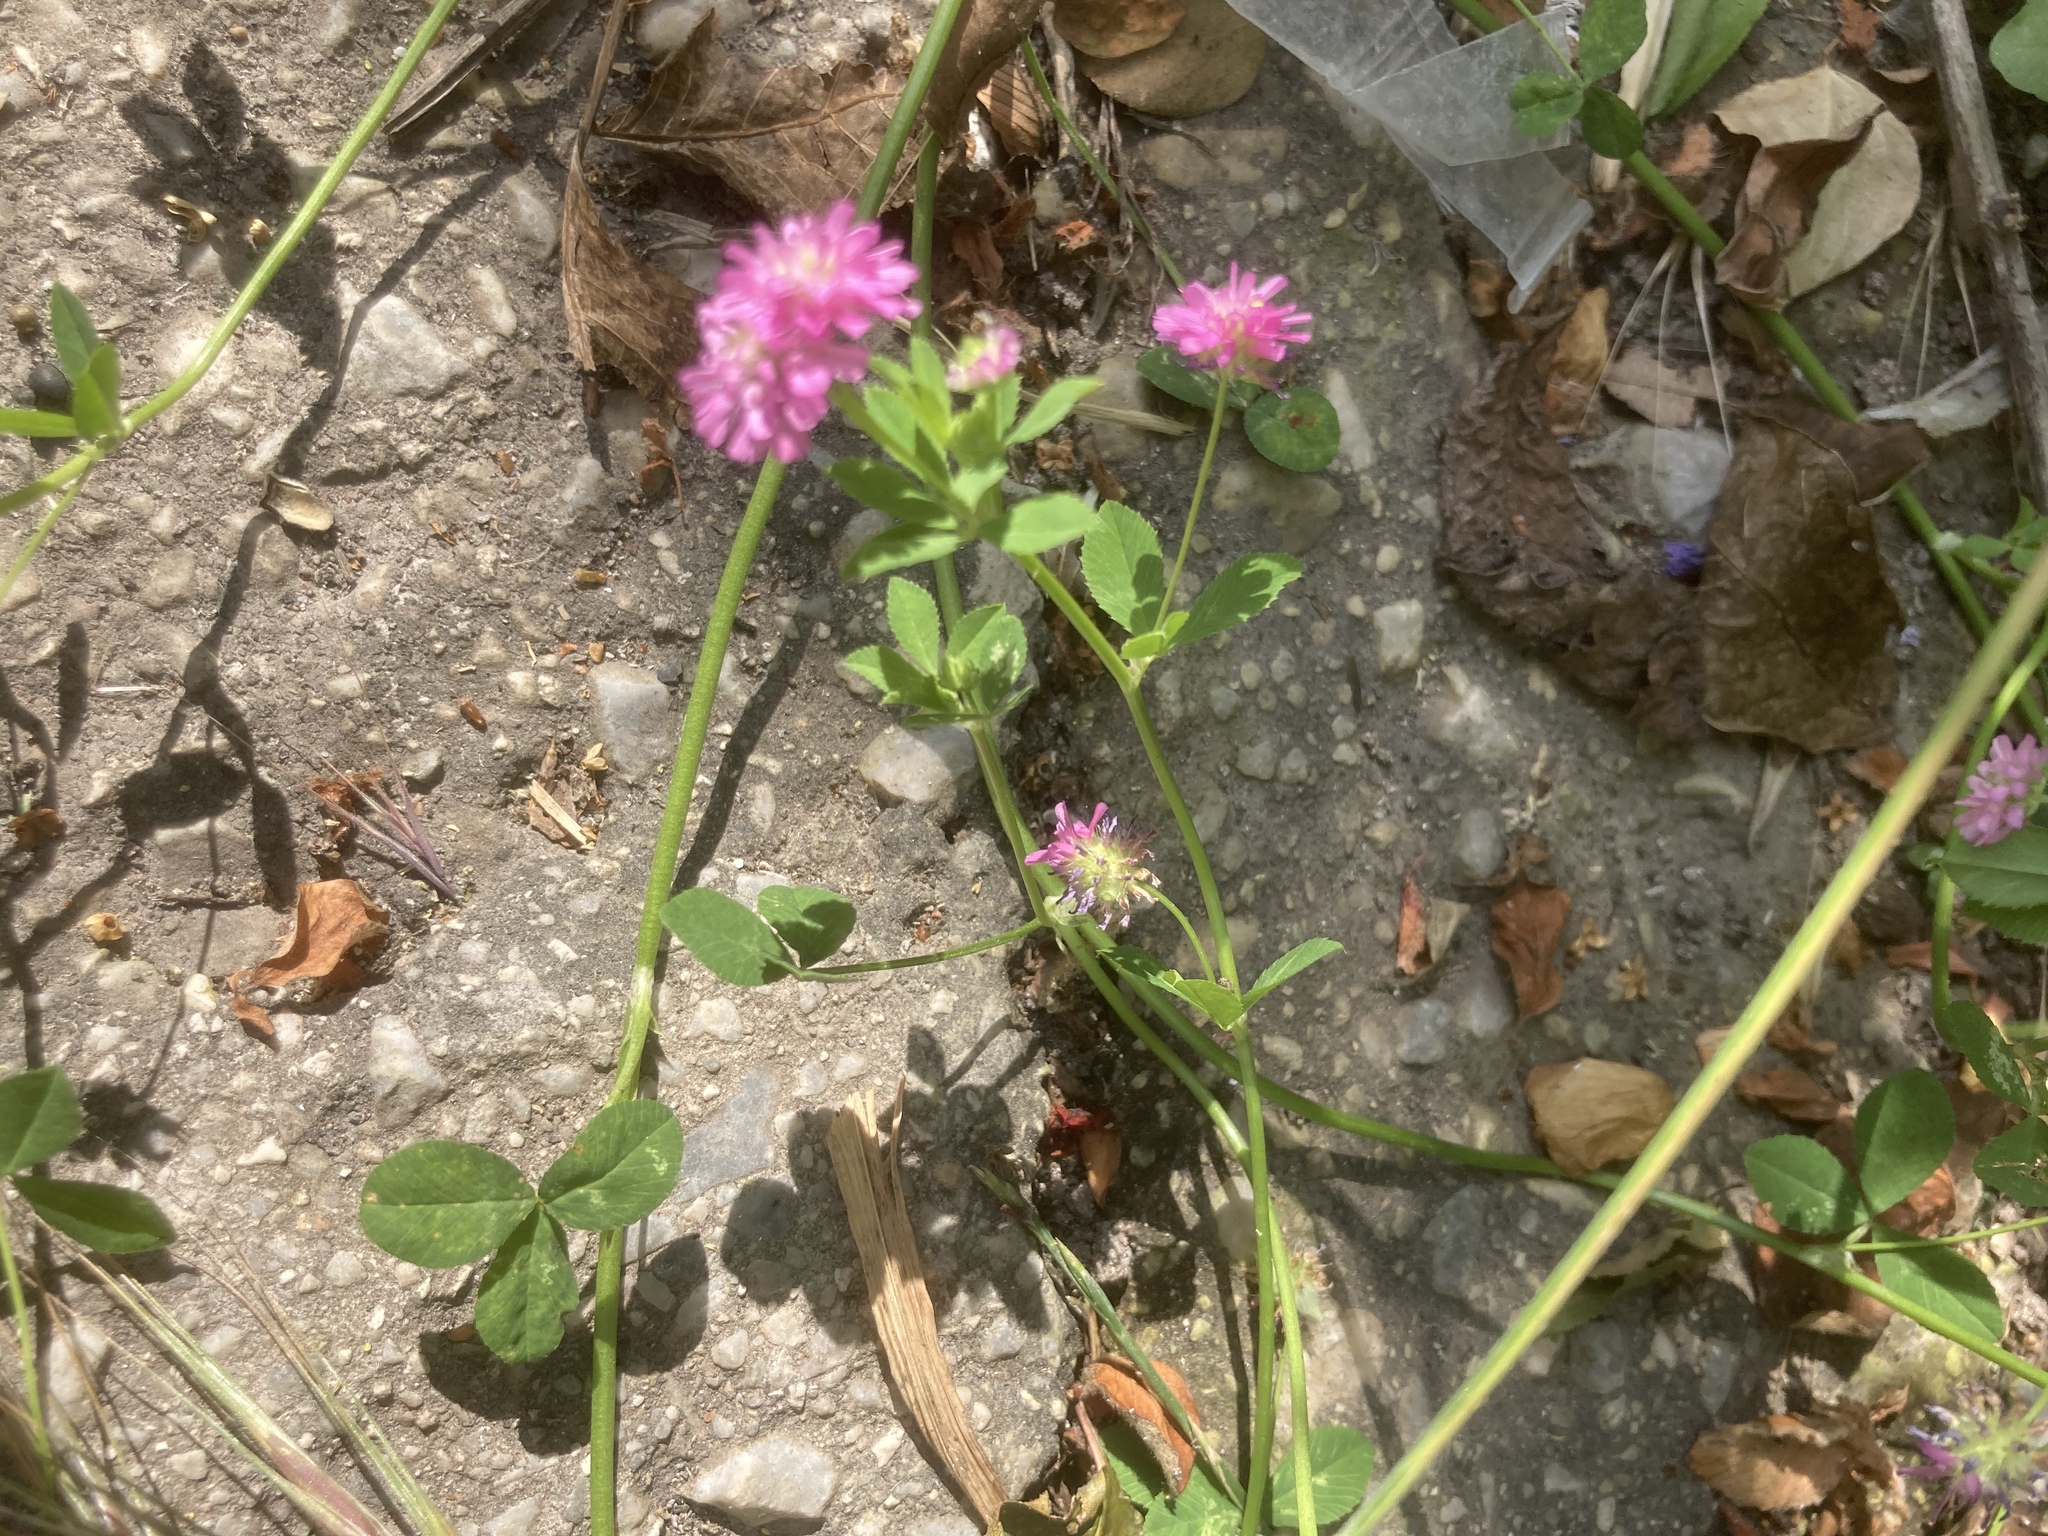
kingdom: Plantae
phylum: Tracheophyta
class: Magnoliopsida
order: Fabales
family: Fabaceae
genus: Trifolium
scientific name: Trifolium resupinatum
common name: Reversed clover
